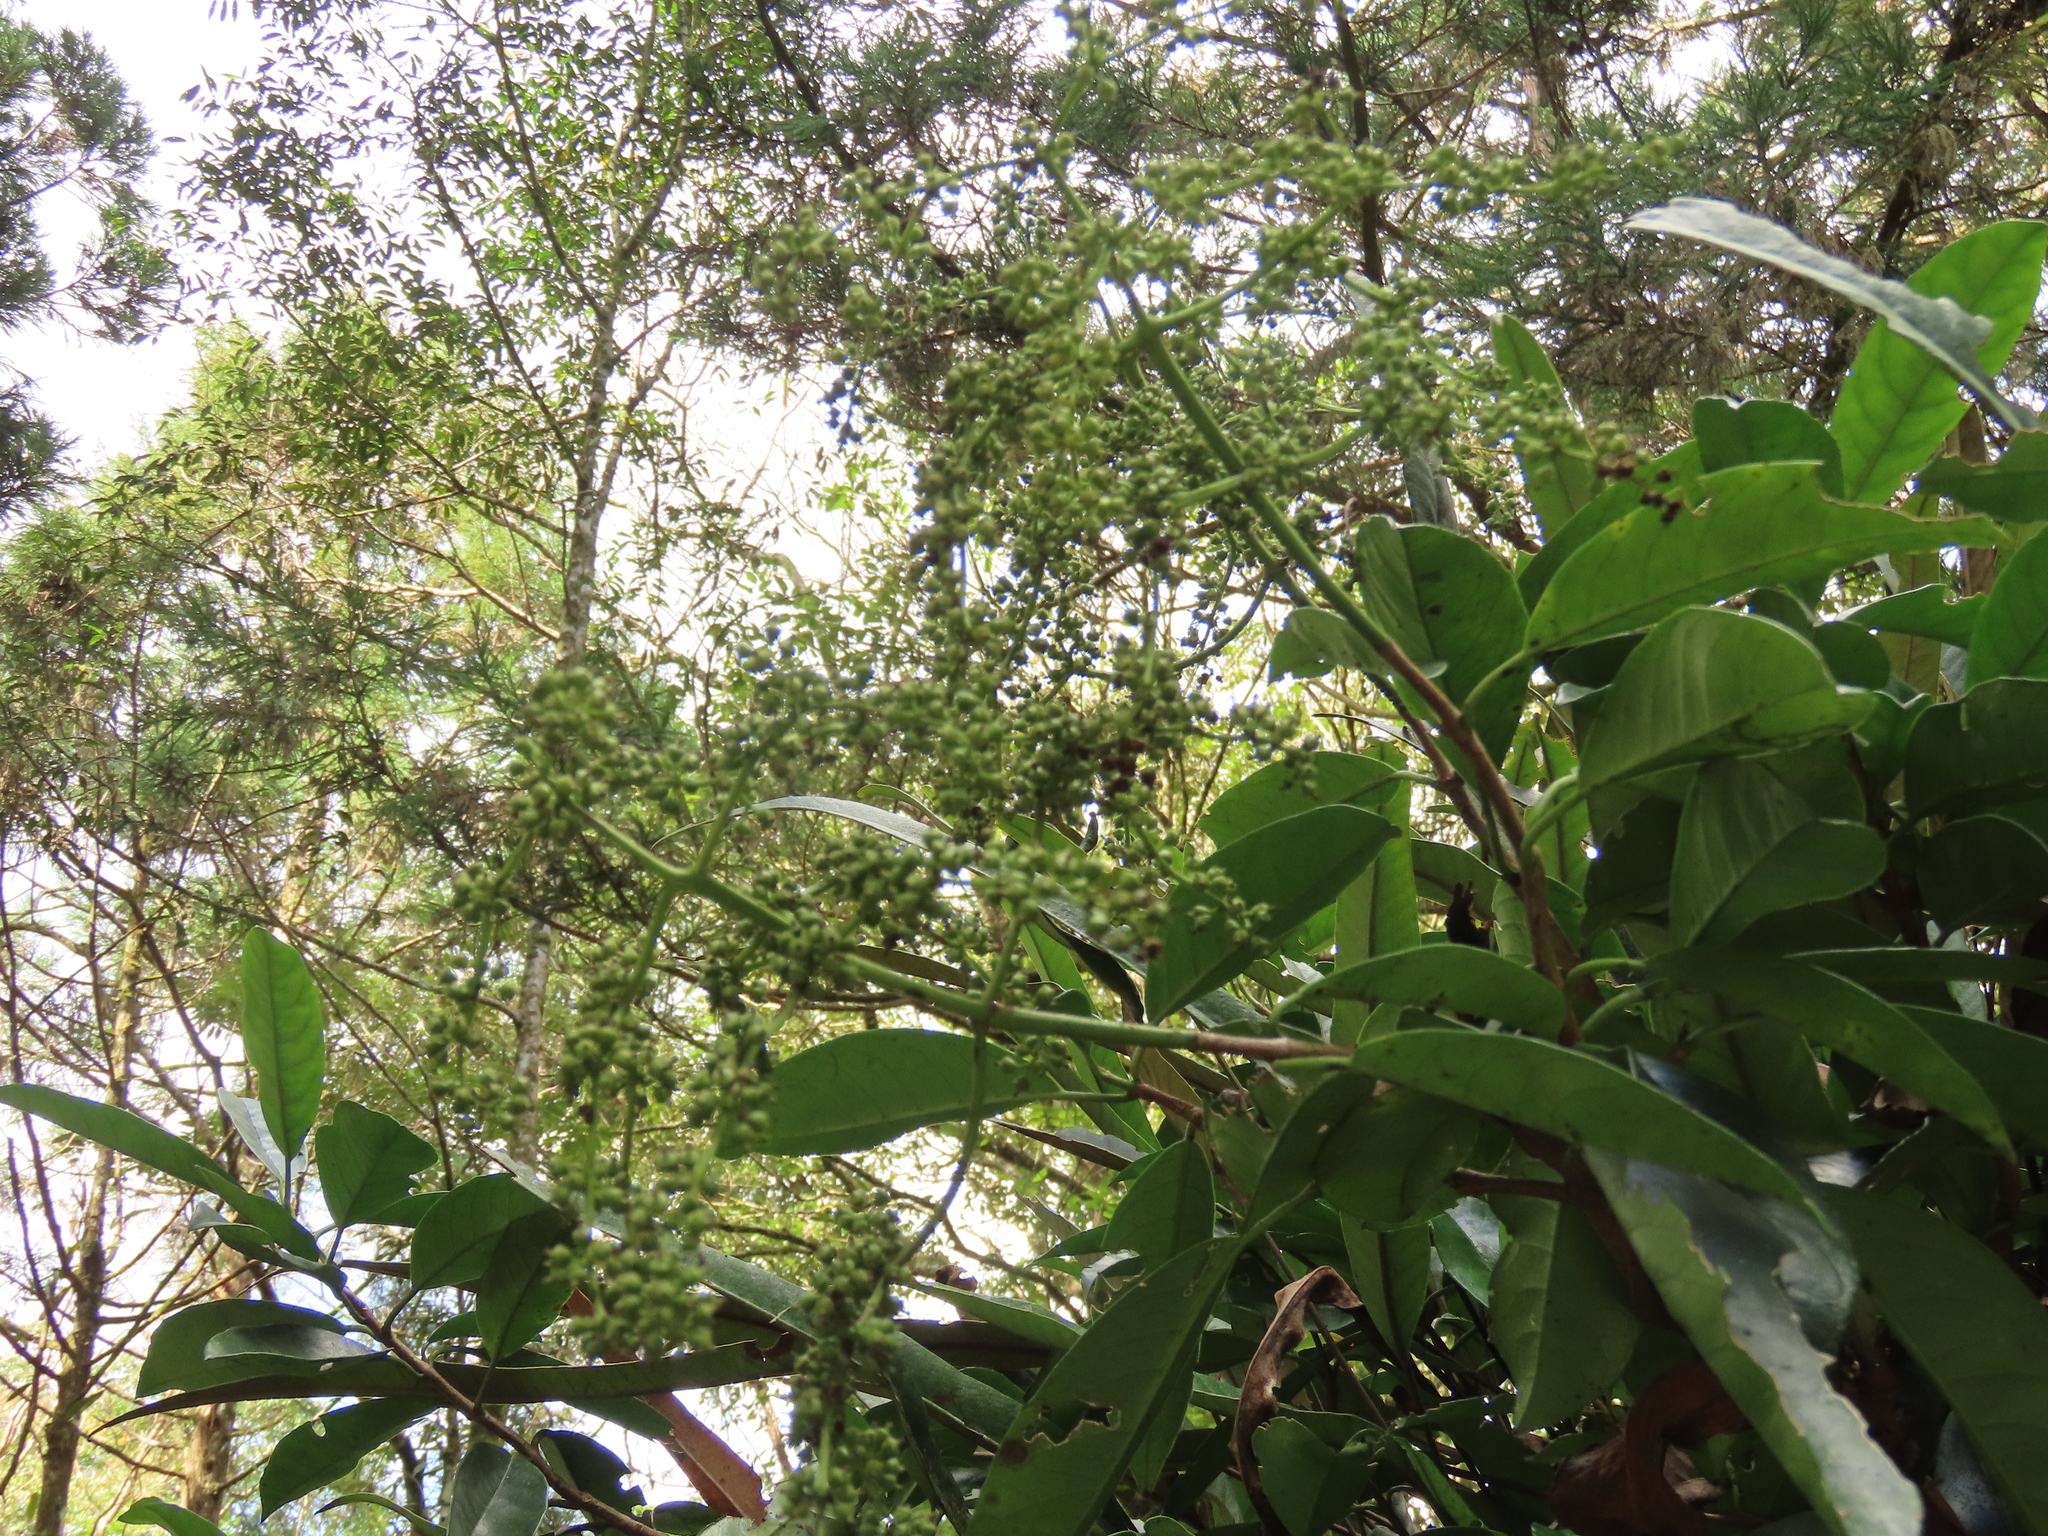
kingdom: Plantae
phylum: Tracheophyta
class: Magnoliopsida
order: Cornales
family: Hydrangeaceae
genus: Hydrangea
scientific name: Hydrangea viburnoides
